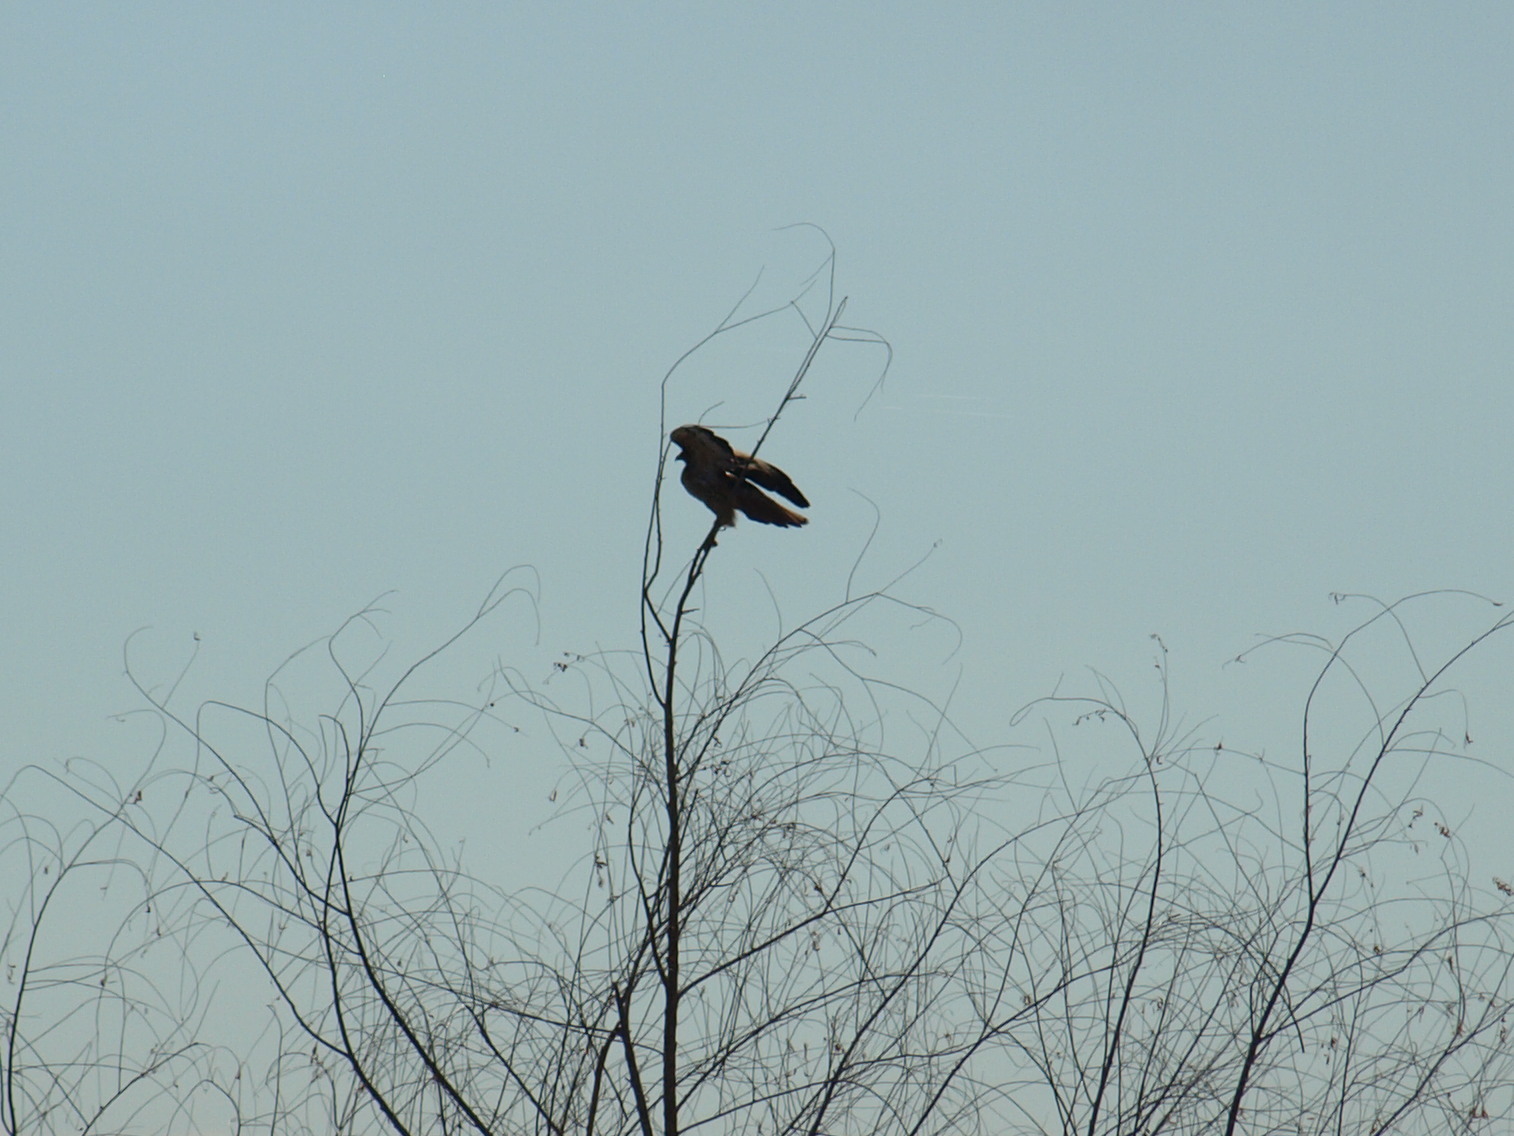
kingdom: Animalia
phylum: Chordata
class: Aves
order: Accipitriformes
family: Accipitridae
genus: Buteo
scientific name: Buteo jamaicensis
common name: Red-tailed hawk
